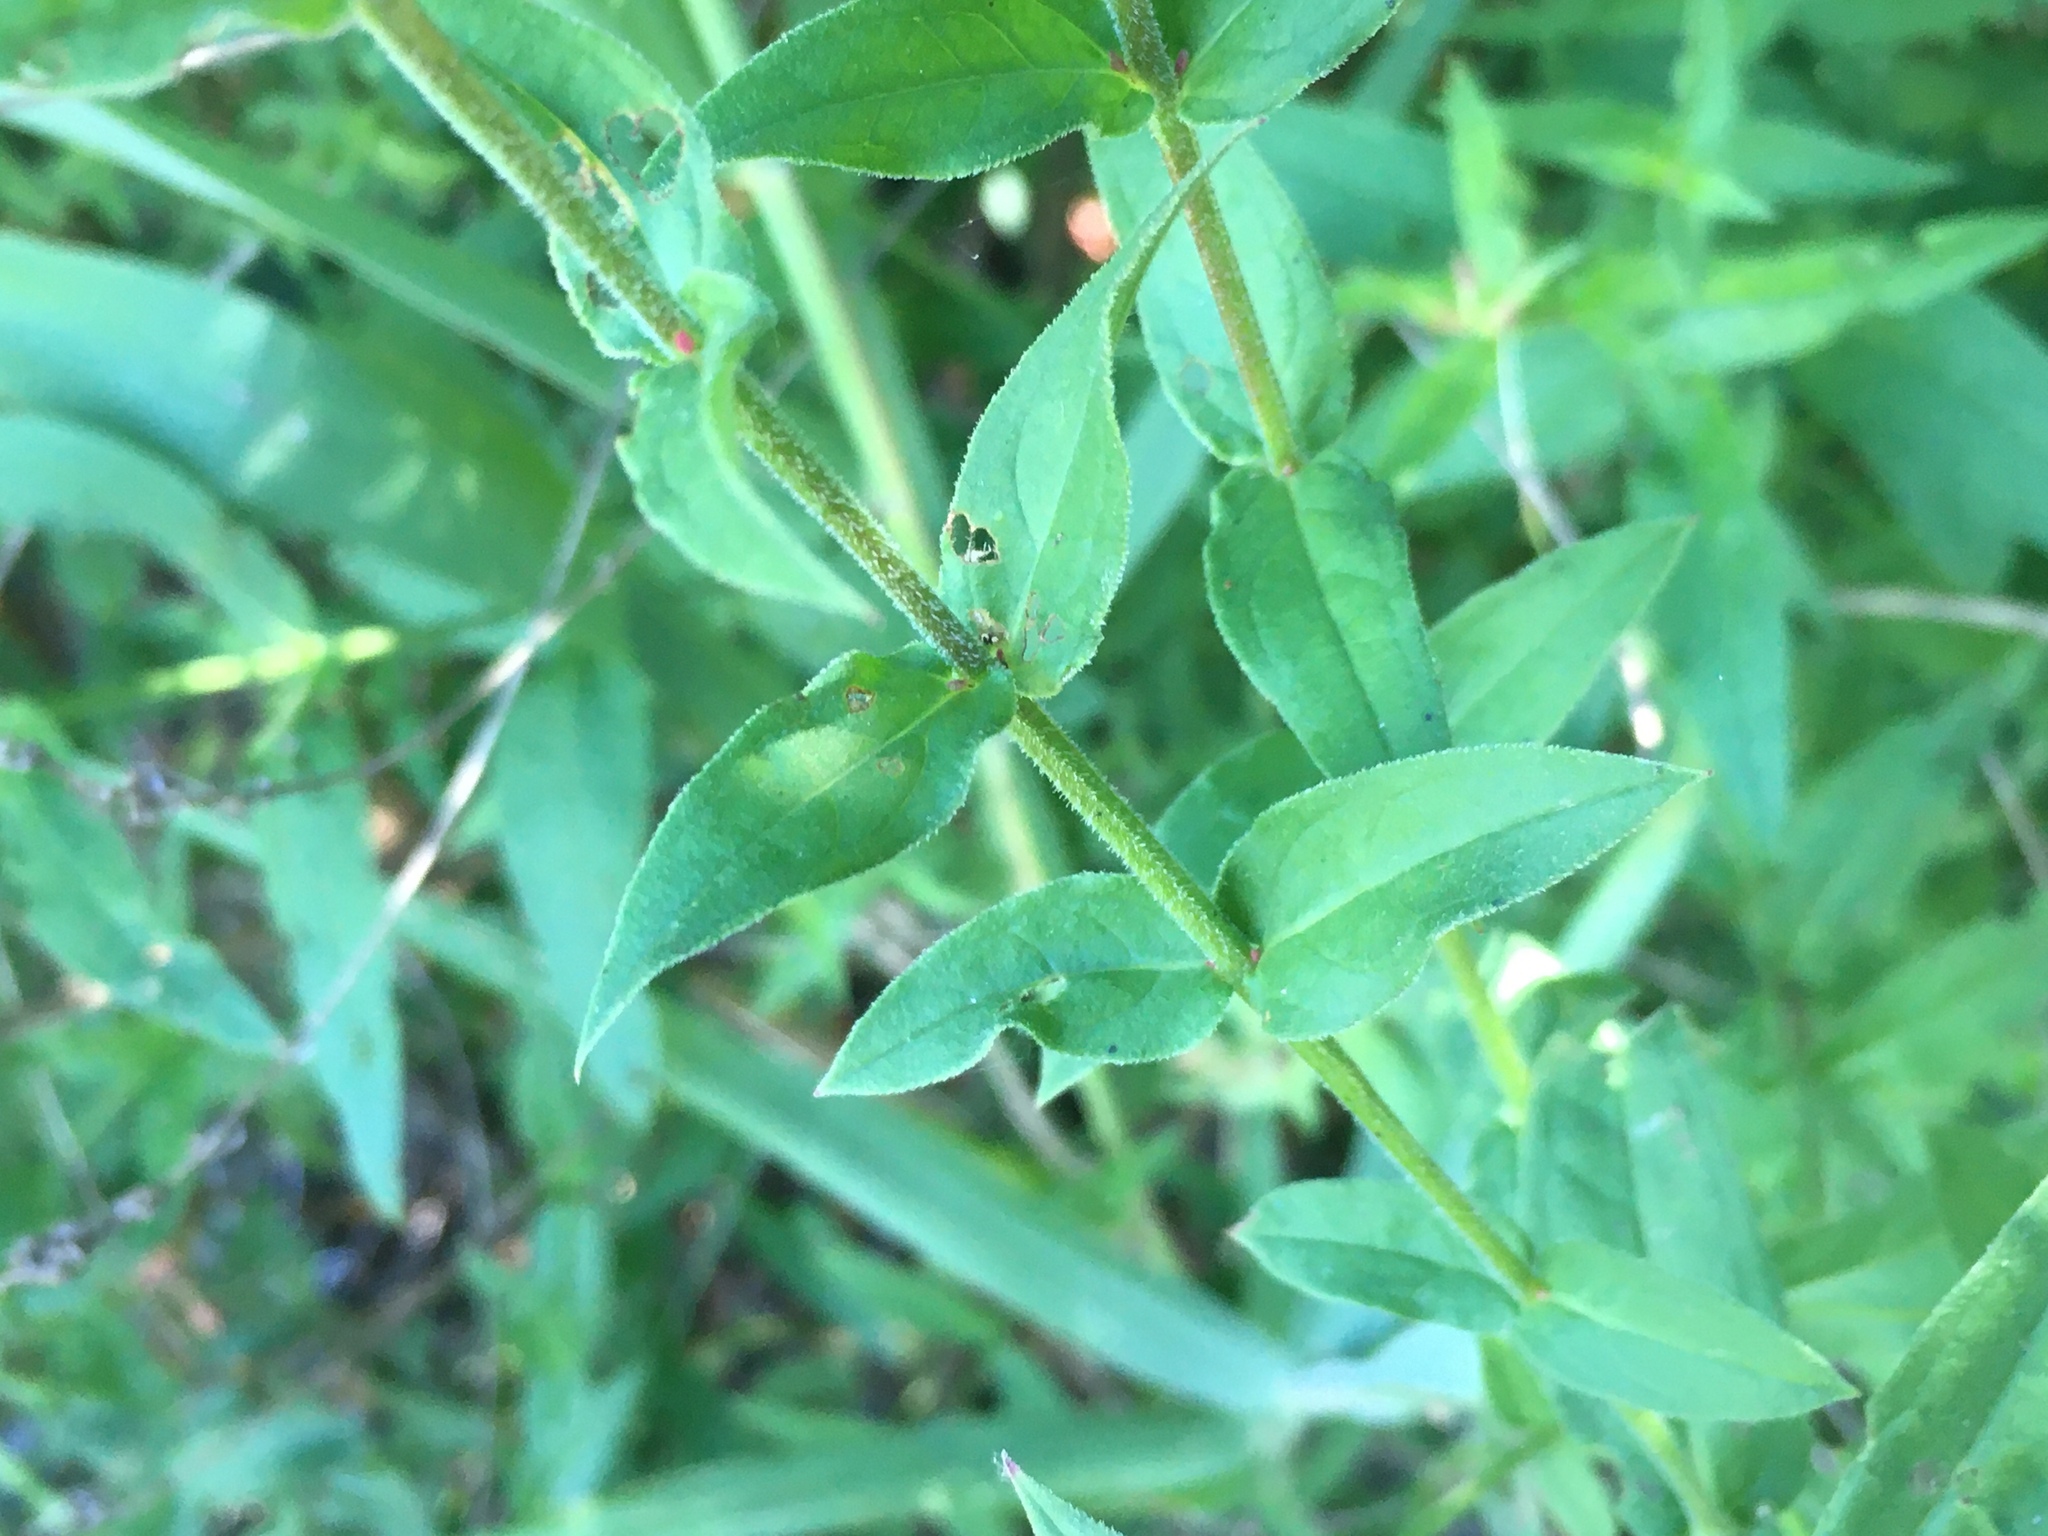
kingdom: Plantae
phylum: Tracheophyta
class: Magnoliopsida
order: Myrtales
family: Lythraceae
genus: Lythrum
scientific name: Lythrum salicaria
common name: Purple loosestrife
